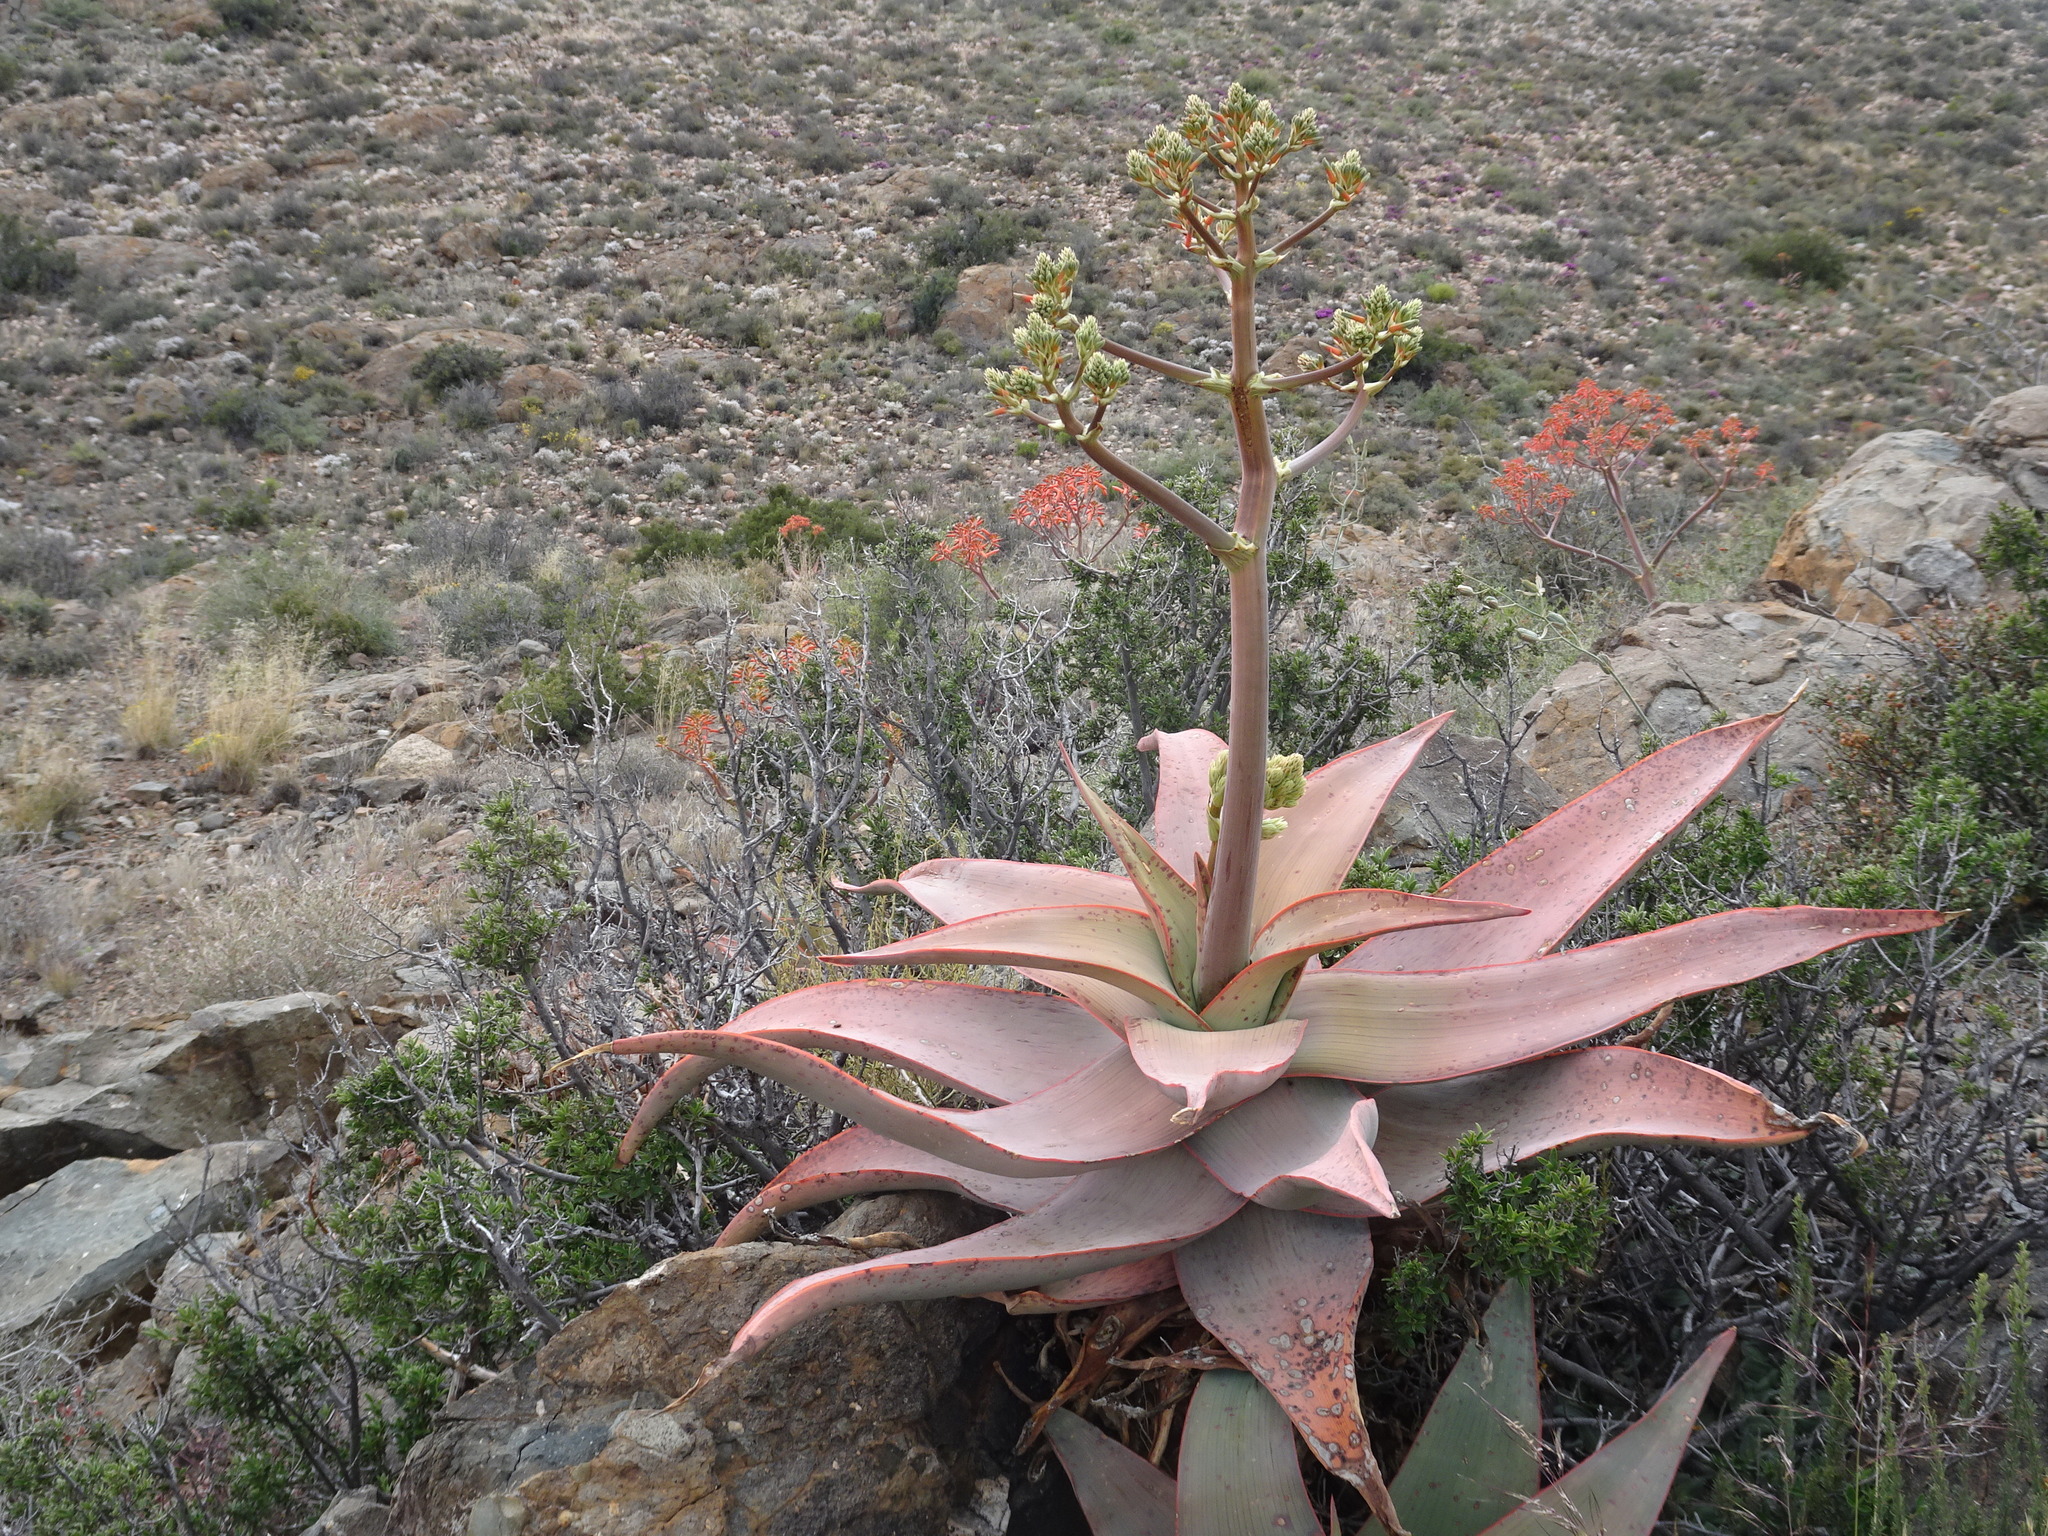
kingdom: Plantae
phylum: Tracheophyta
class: Liliopsida
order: Asparagales
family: Asphodelaceae
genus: Aloe
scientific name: Aloe striata
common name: Coral aloe
